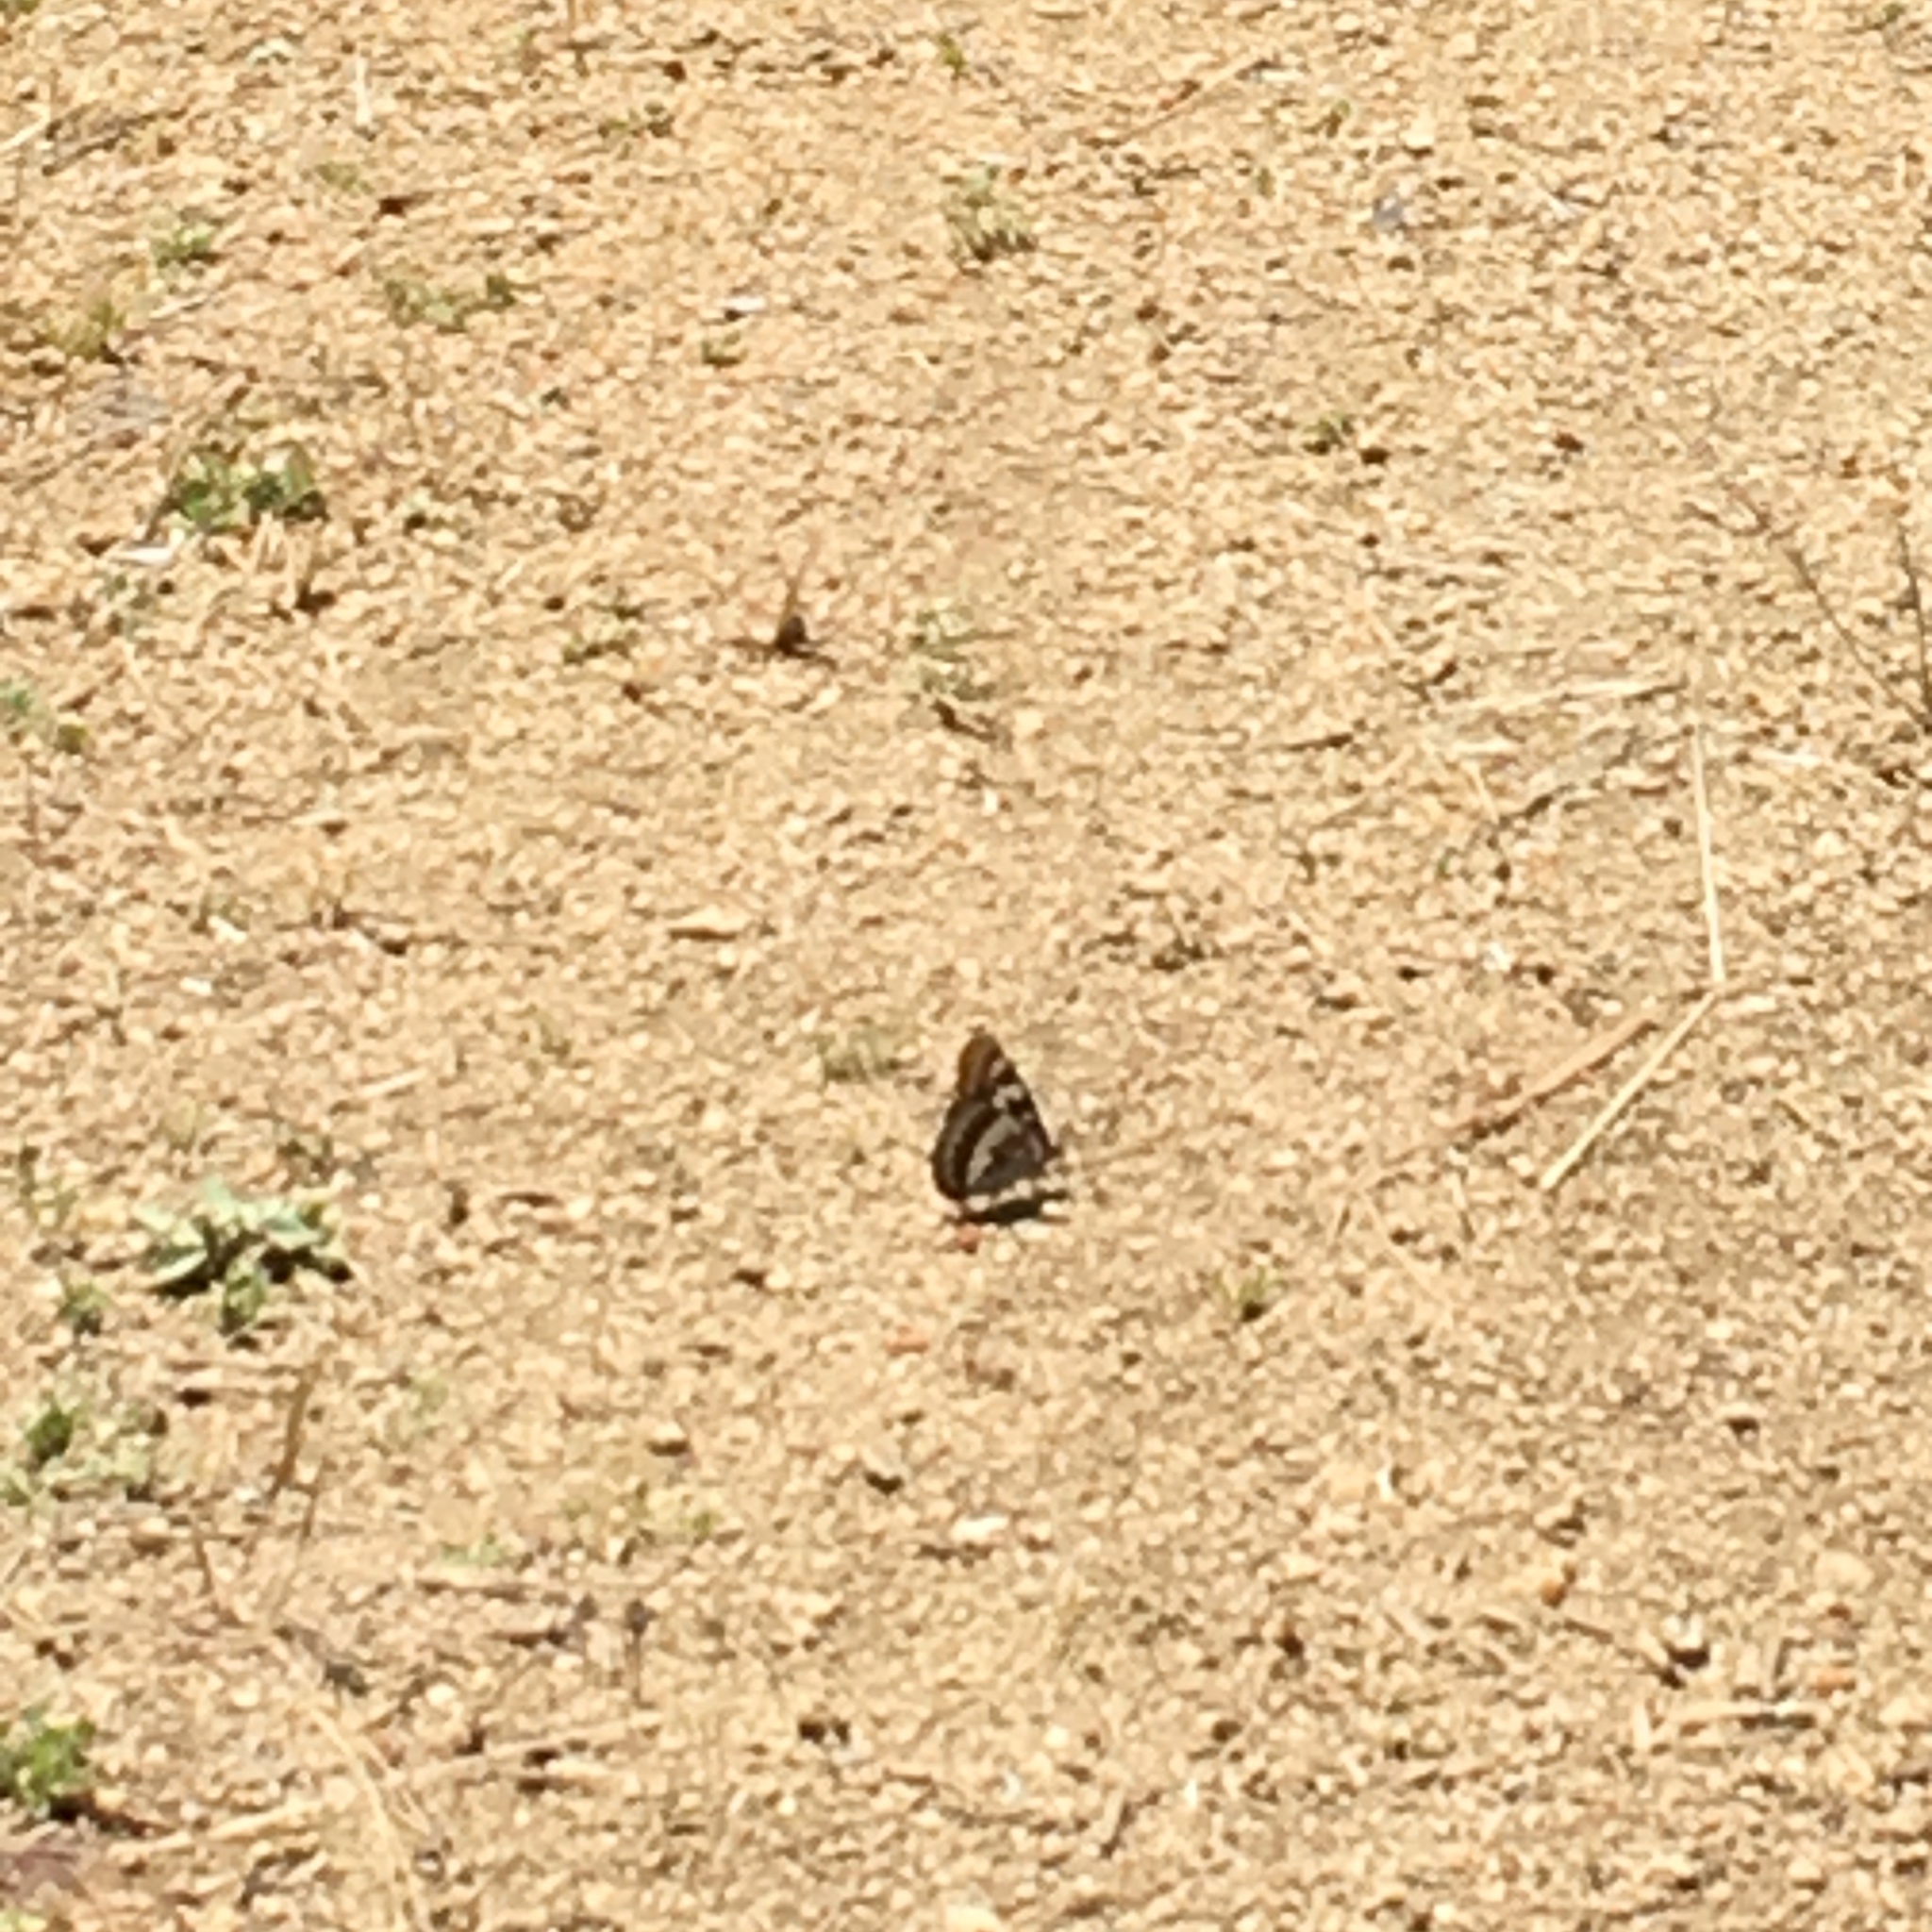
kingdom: Animalia
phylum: Arthropoda
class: Insecta
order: Lepidoptera
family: Nymphalidae
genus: Limenitis
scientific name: Limenitis lorquini
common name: Lorquin's admiral
